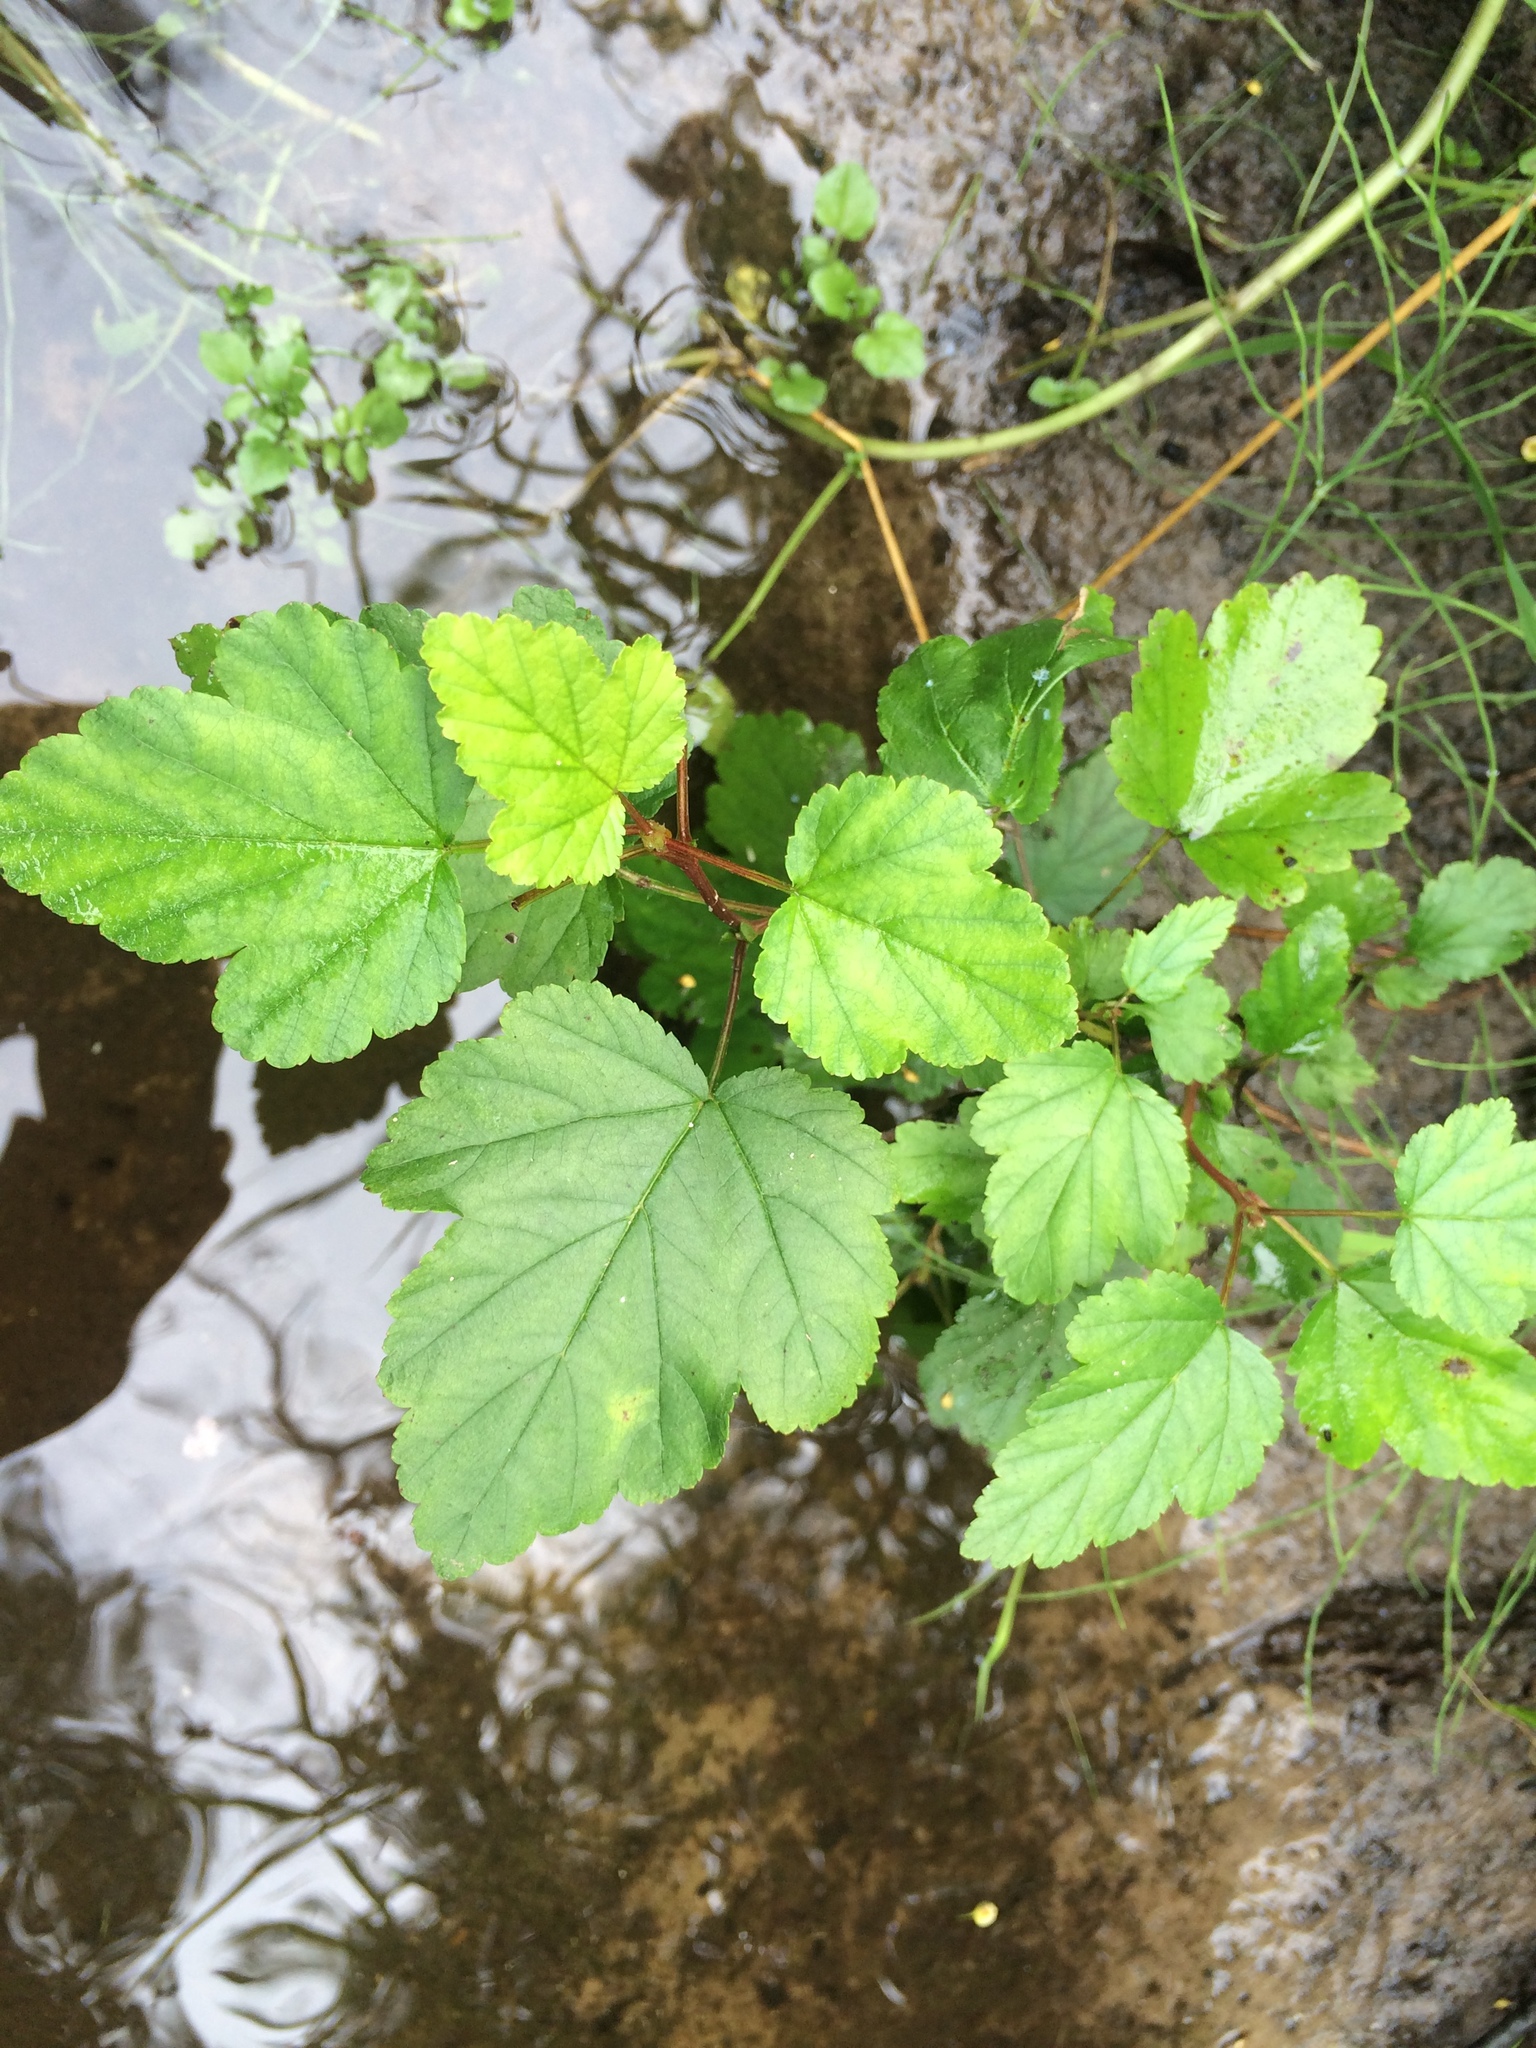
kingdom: Plantae
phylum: Tracheophyta
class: Magnoliopsida
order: Rosales
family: Rosaceae
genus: Physocarpus
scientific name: Physocarpus opulifolius
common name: Ninebark
